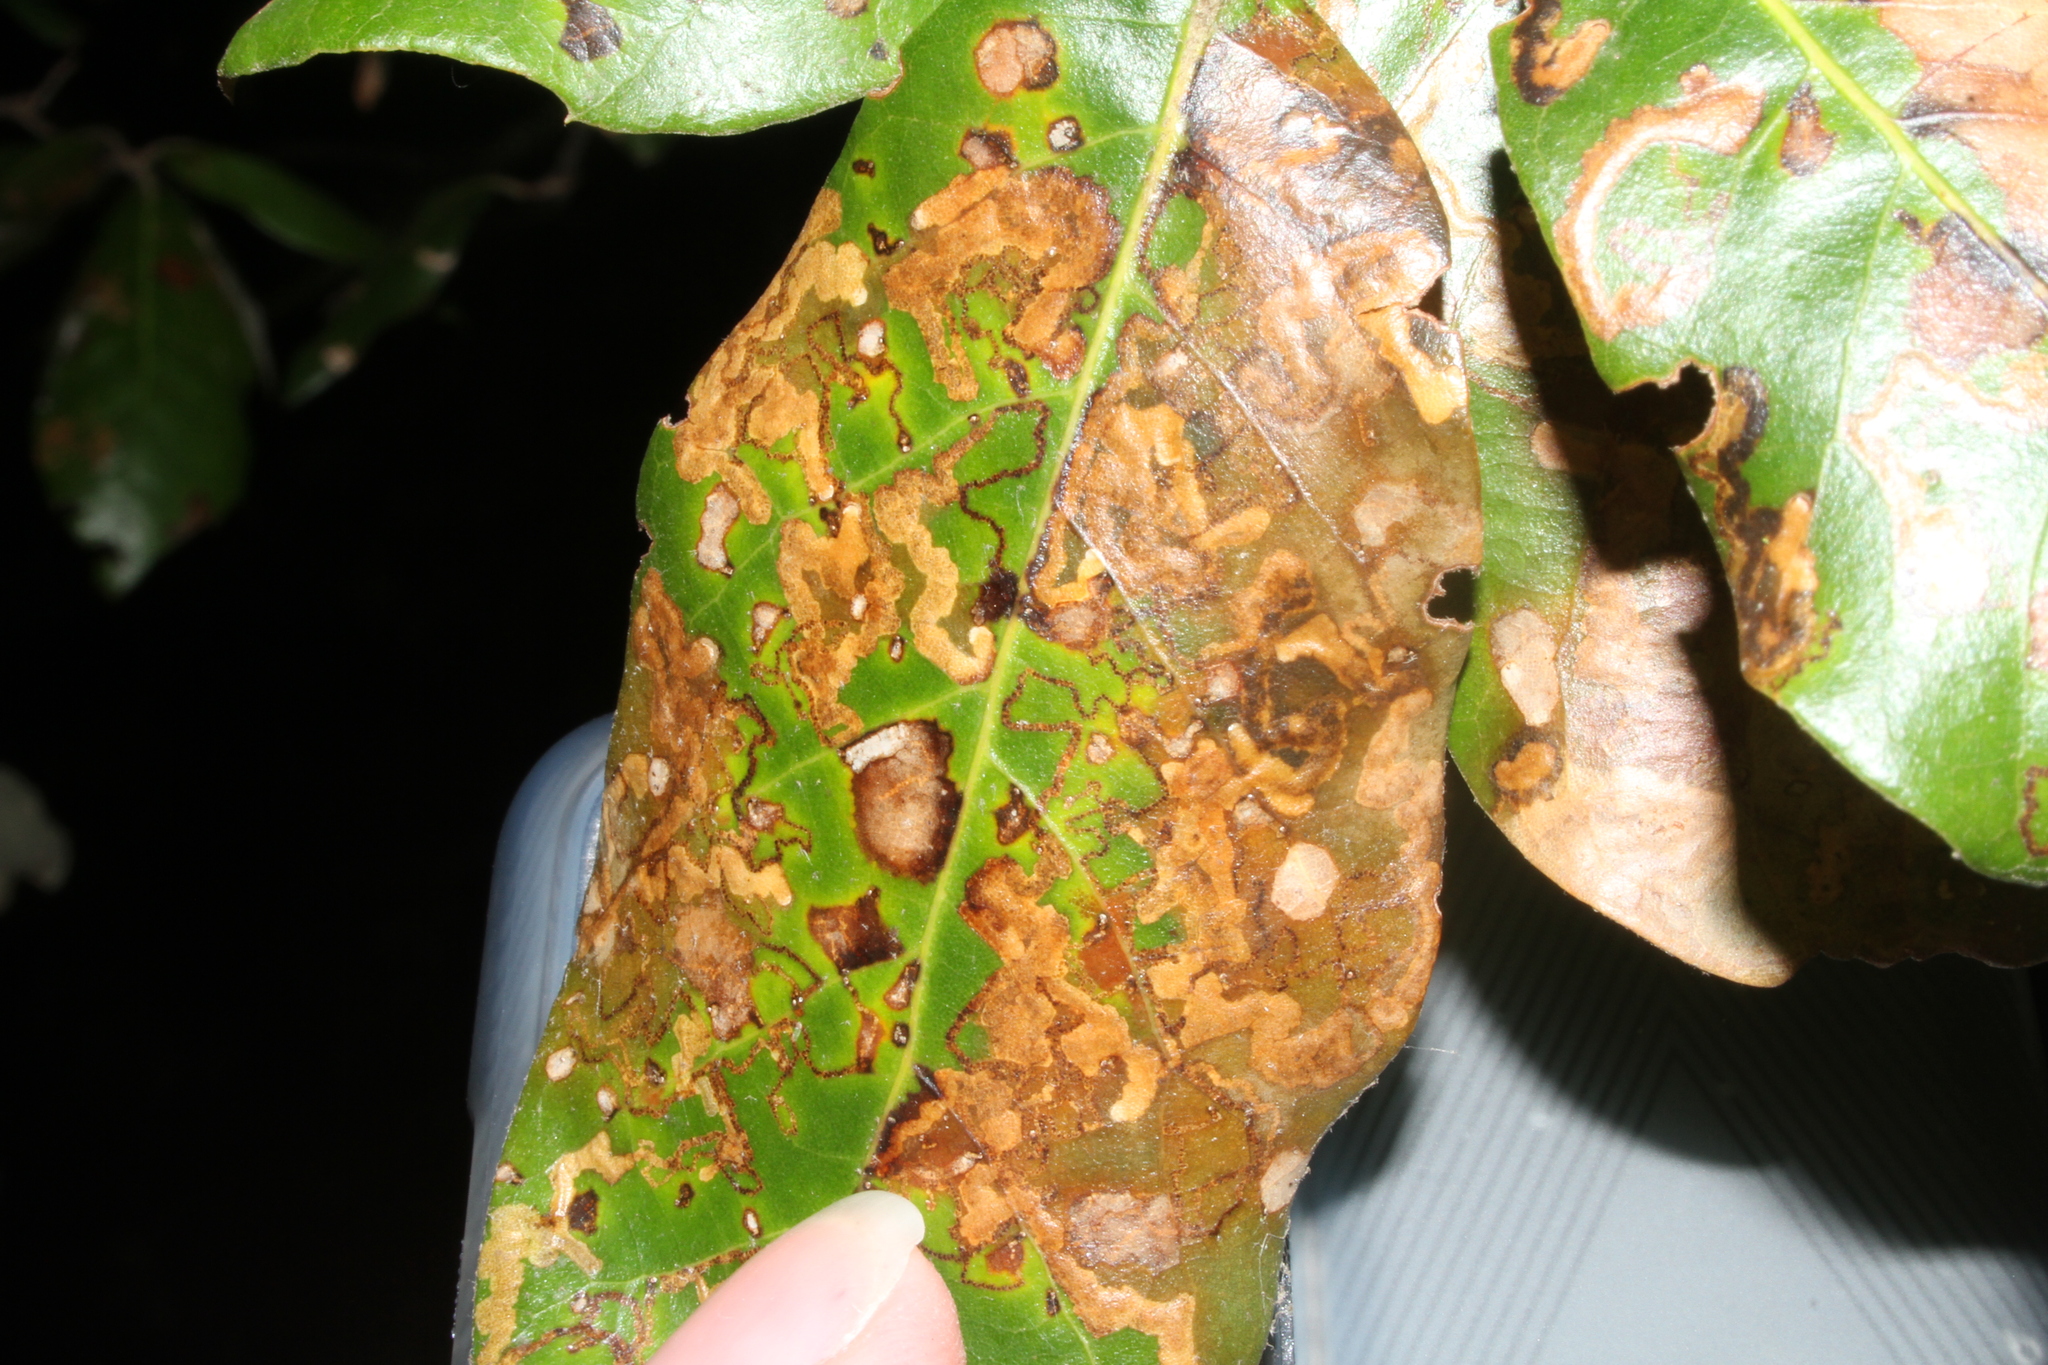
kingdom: Animalia
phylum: Arthropoda
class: Insecta
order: Lepidoptera
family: Nepticulidae
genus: Ectoedemia
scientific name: Ectoedemia heringella
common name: New holm-oak pigmy
